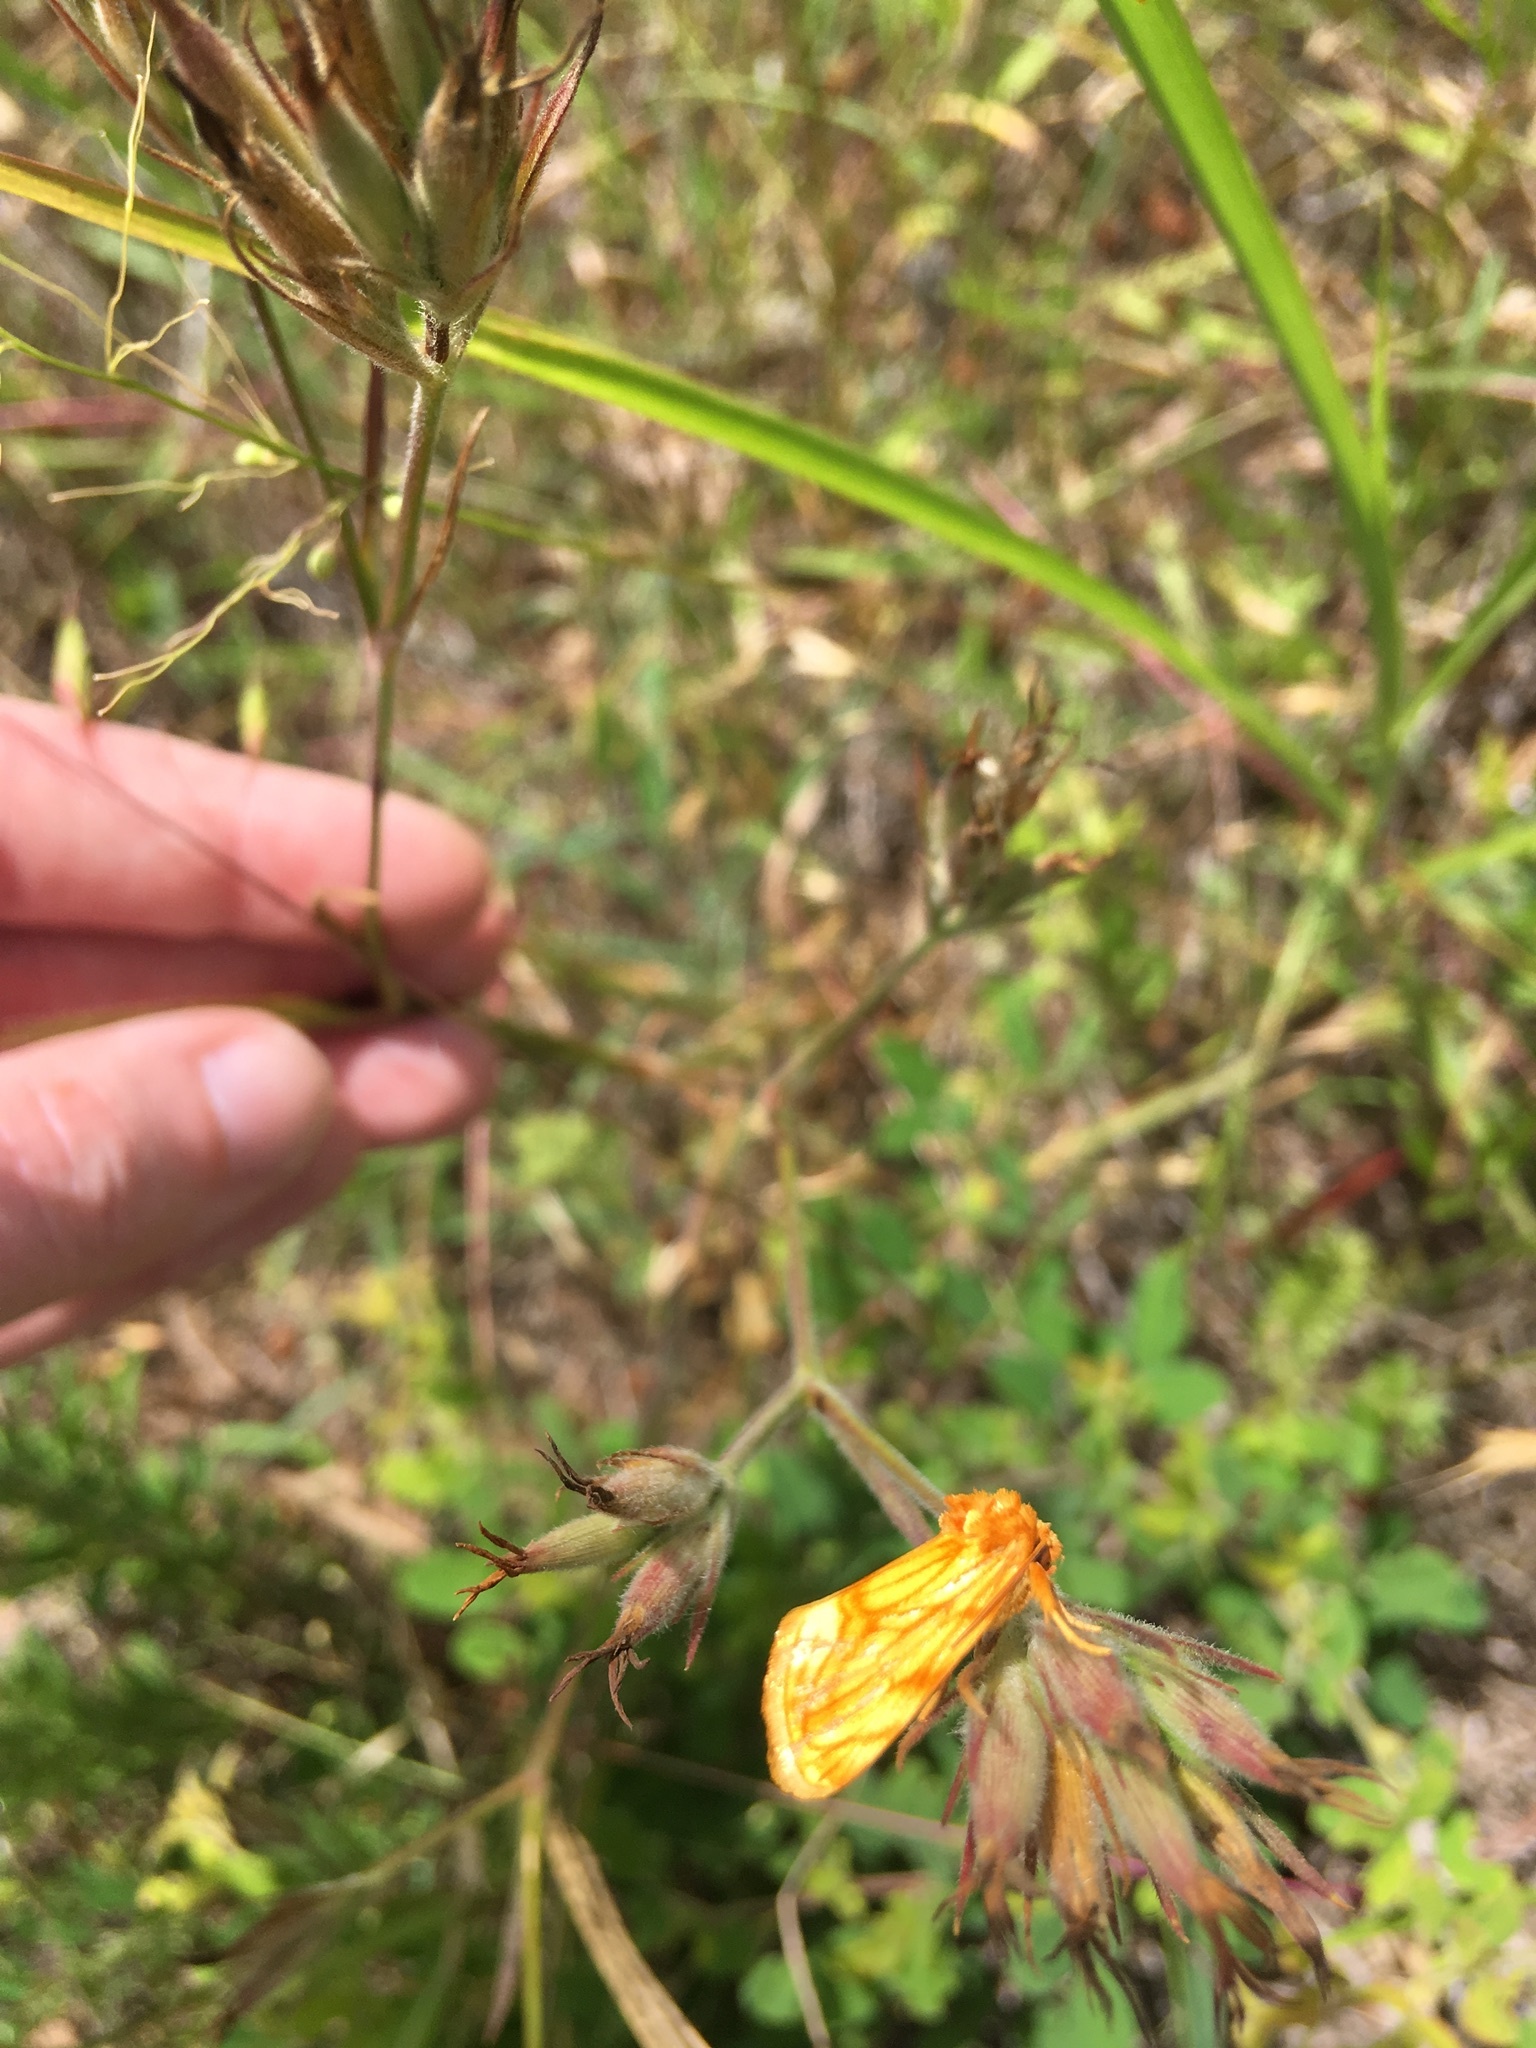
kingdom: Animalia
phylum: Arthropoda
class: Insecta
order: Lepidoptera
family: Noctuidae
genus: Cirrhophanus
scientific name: Cirrhophanus triangulifer
